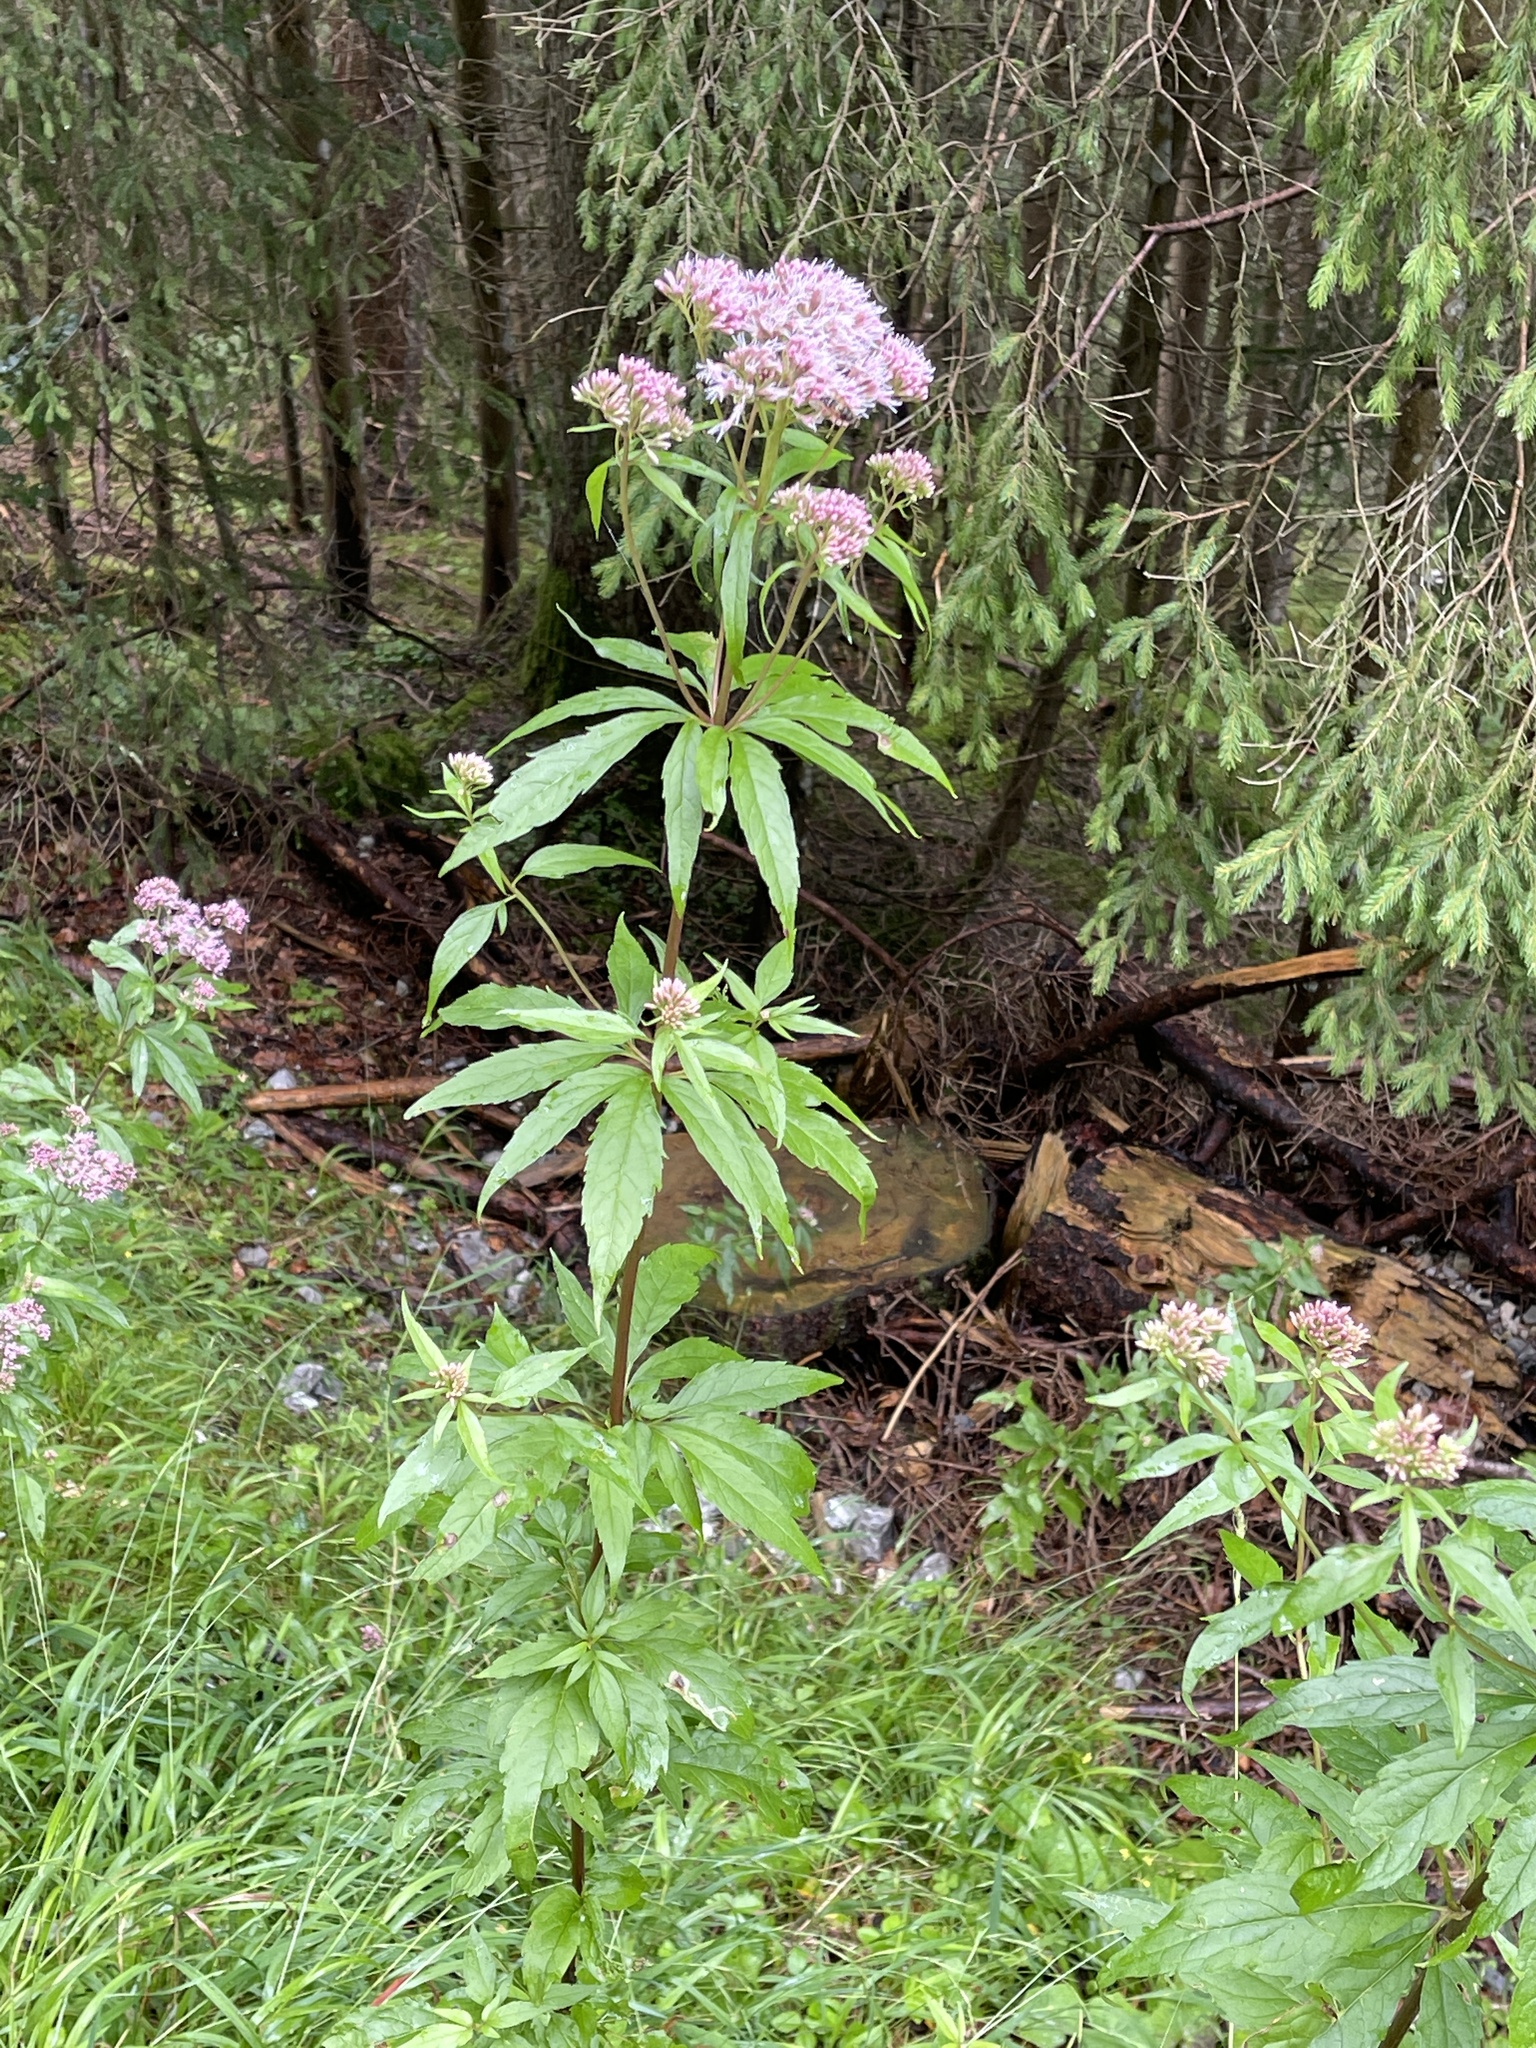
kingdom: Plantae
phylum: Tracheophyta
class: Magnoliopsida
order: Asterales
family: Asteraceae
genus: Eupatorium
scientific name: Eupatorium cannabinum
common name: Hemp-agrimony
